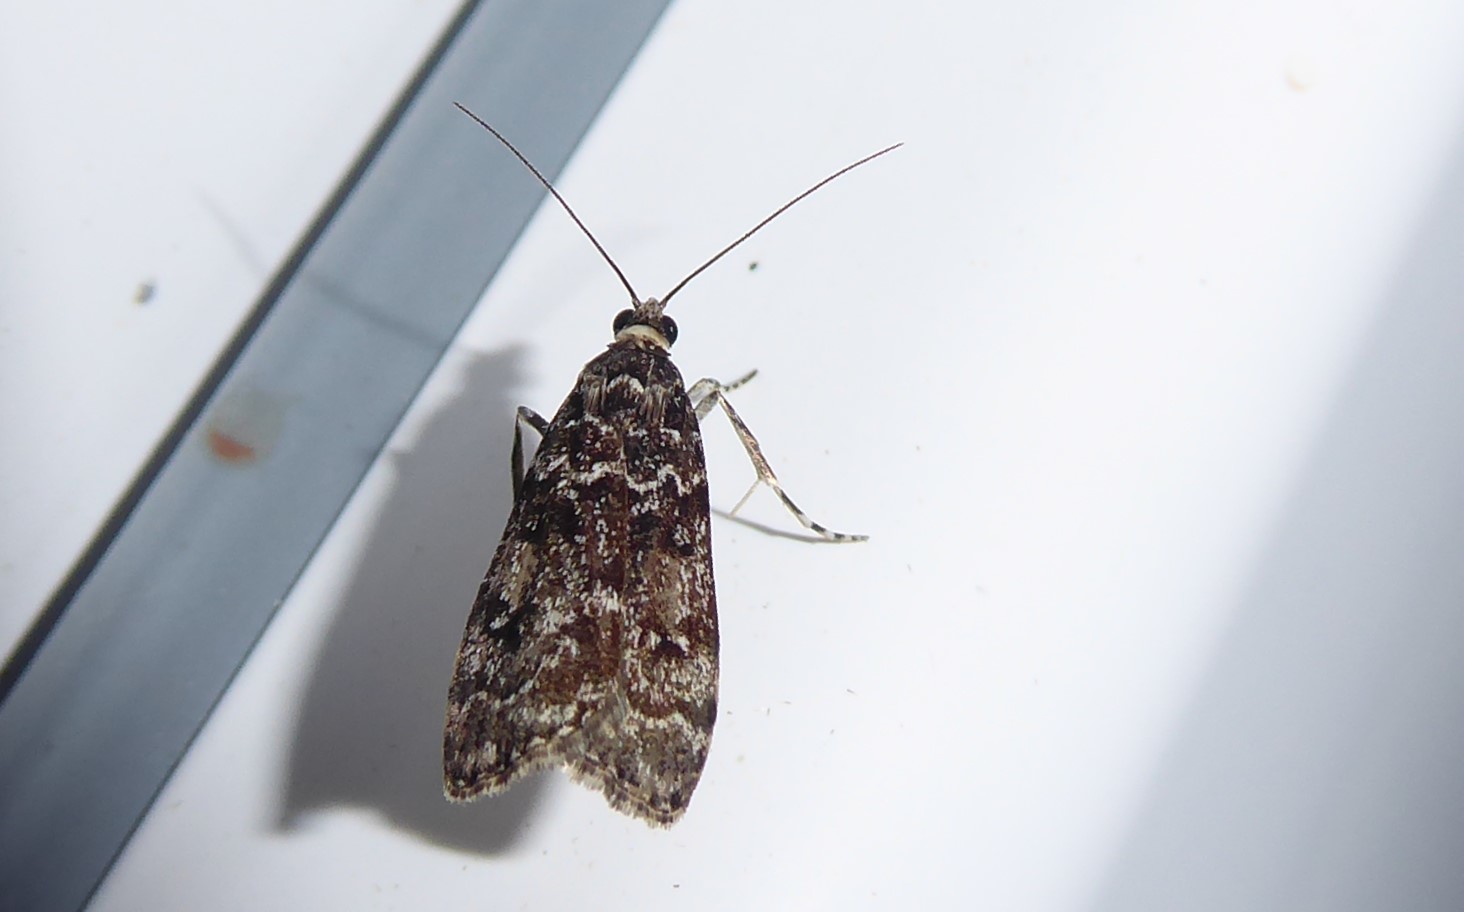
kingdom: Animalia
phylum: Arthropoda
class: Insecta
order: Lepidoptera
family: Crambidae
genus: Eudonia
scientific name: Eudonia philerga
